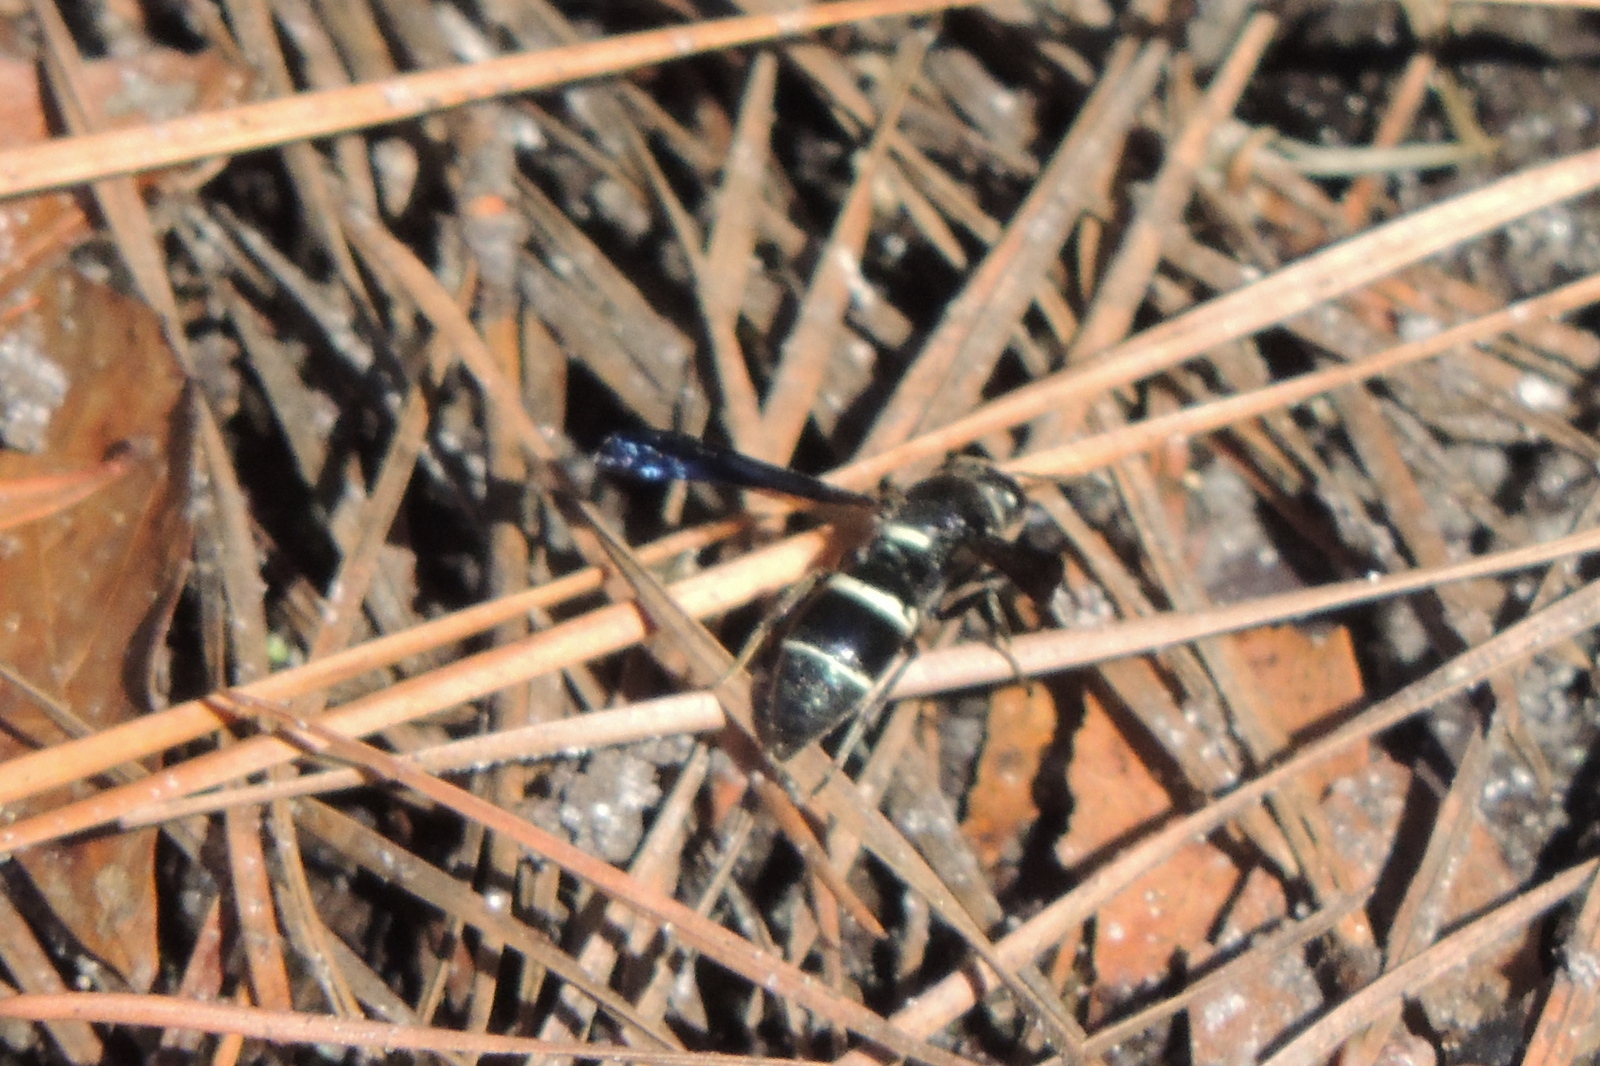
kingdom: Animalia
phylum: Arthropoda
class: Insecta
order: Hymenoptera
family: Eumenidae
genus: Euodynerus
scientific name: Euodynerus
